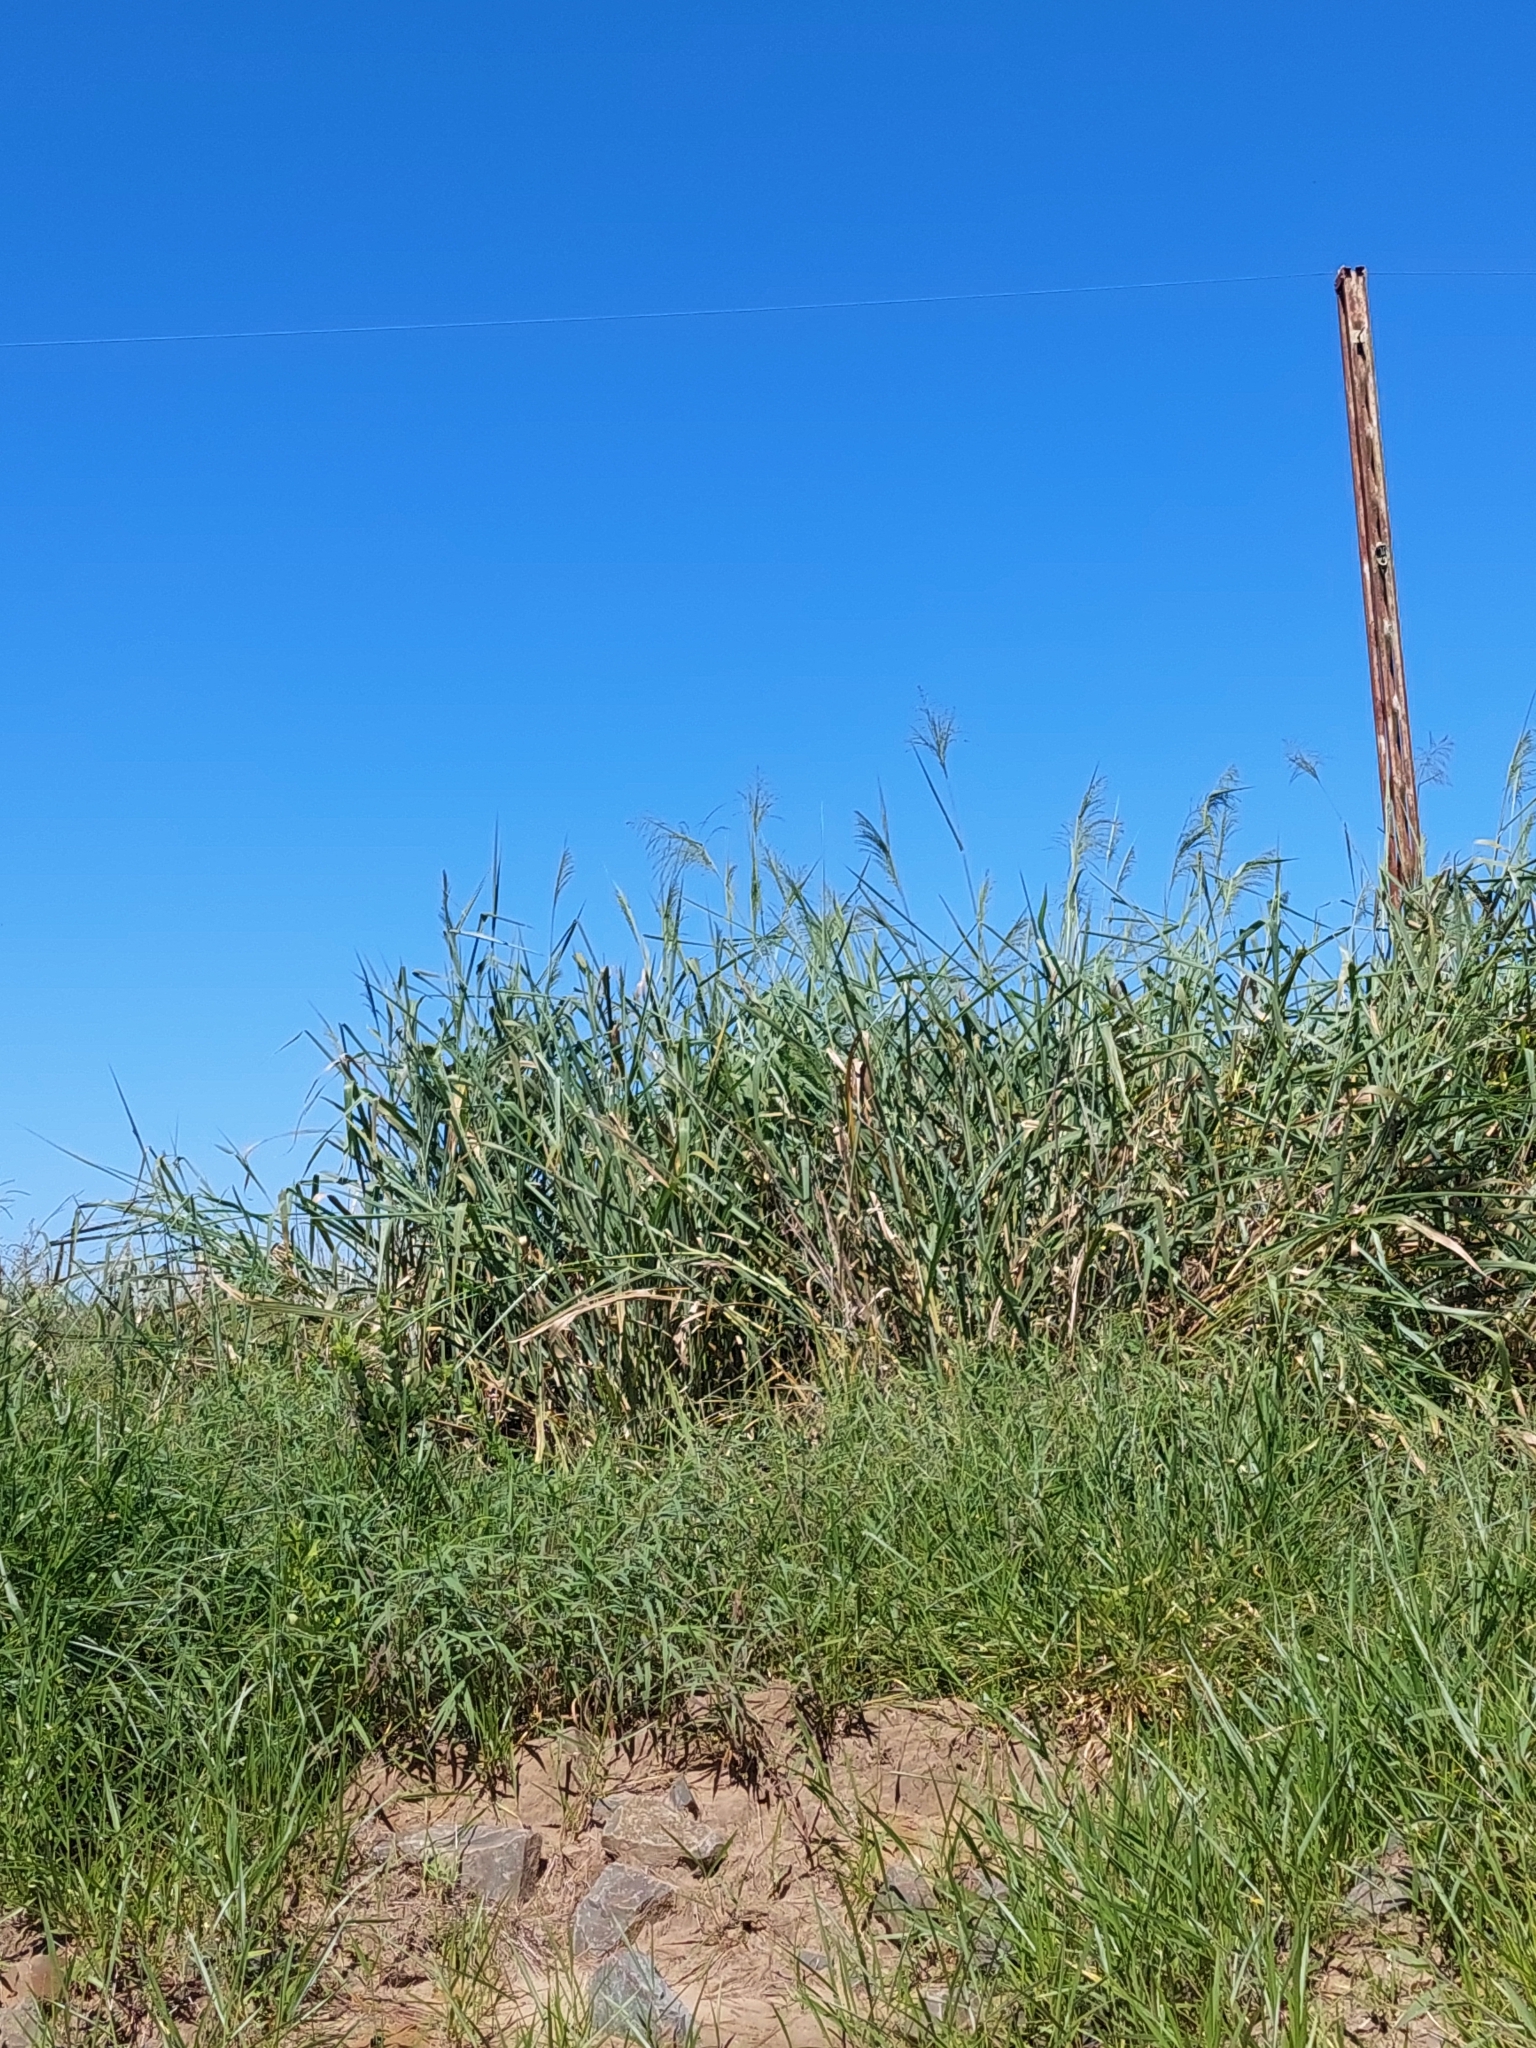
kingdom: Plantae
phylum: Tracheophyta
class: Liliopsida
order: Poales
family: Poaceae
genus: Megathyrsus
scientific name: Megathyrsus maximus
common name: Guineagrass
